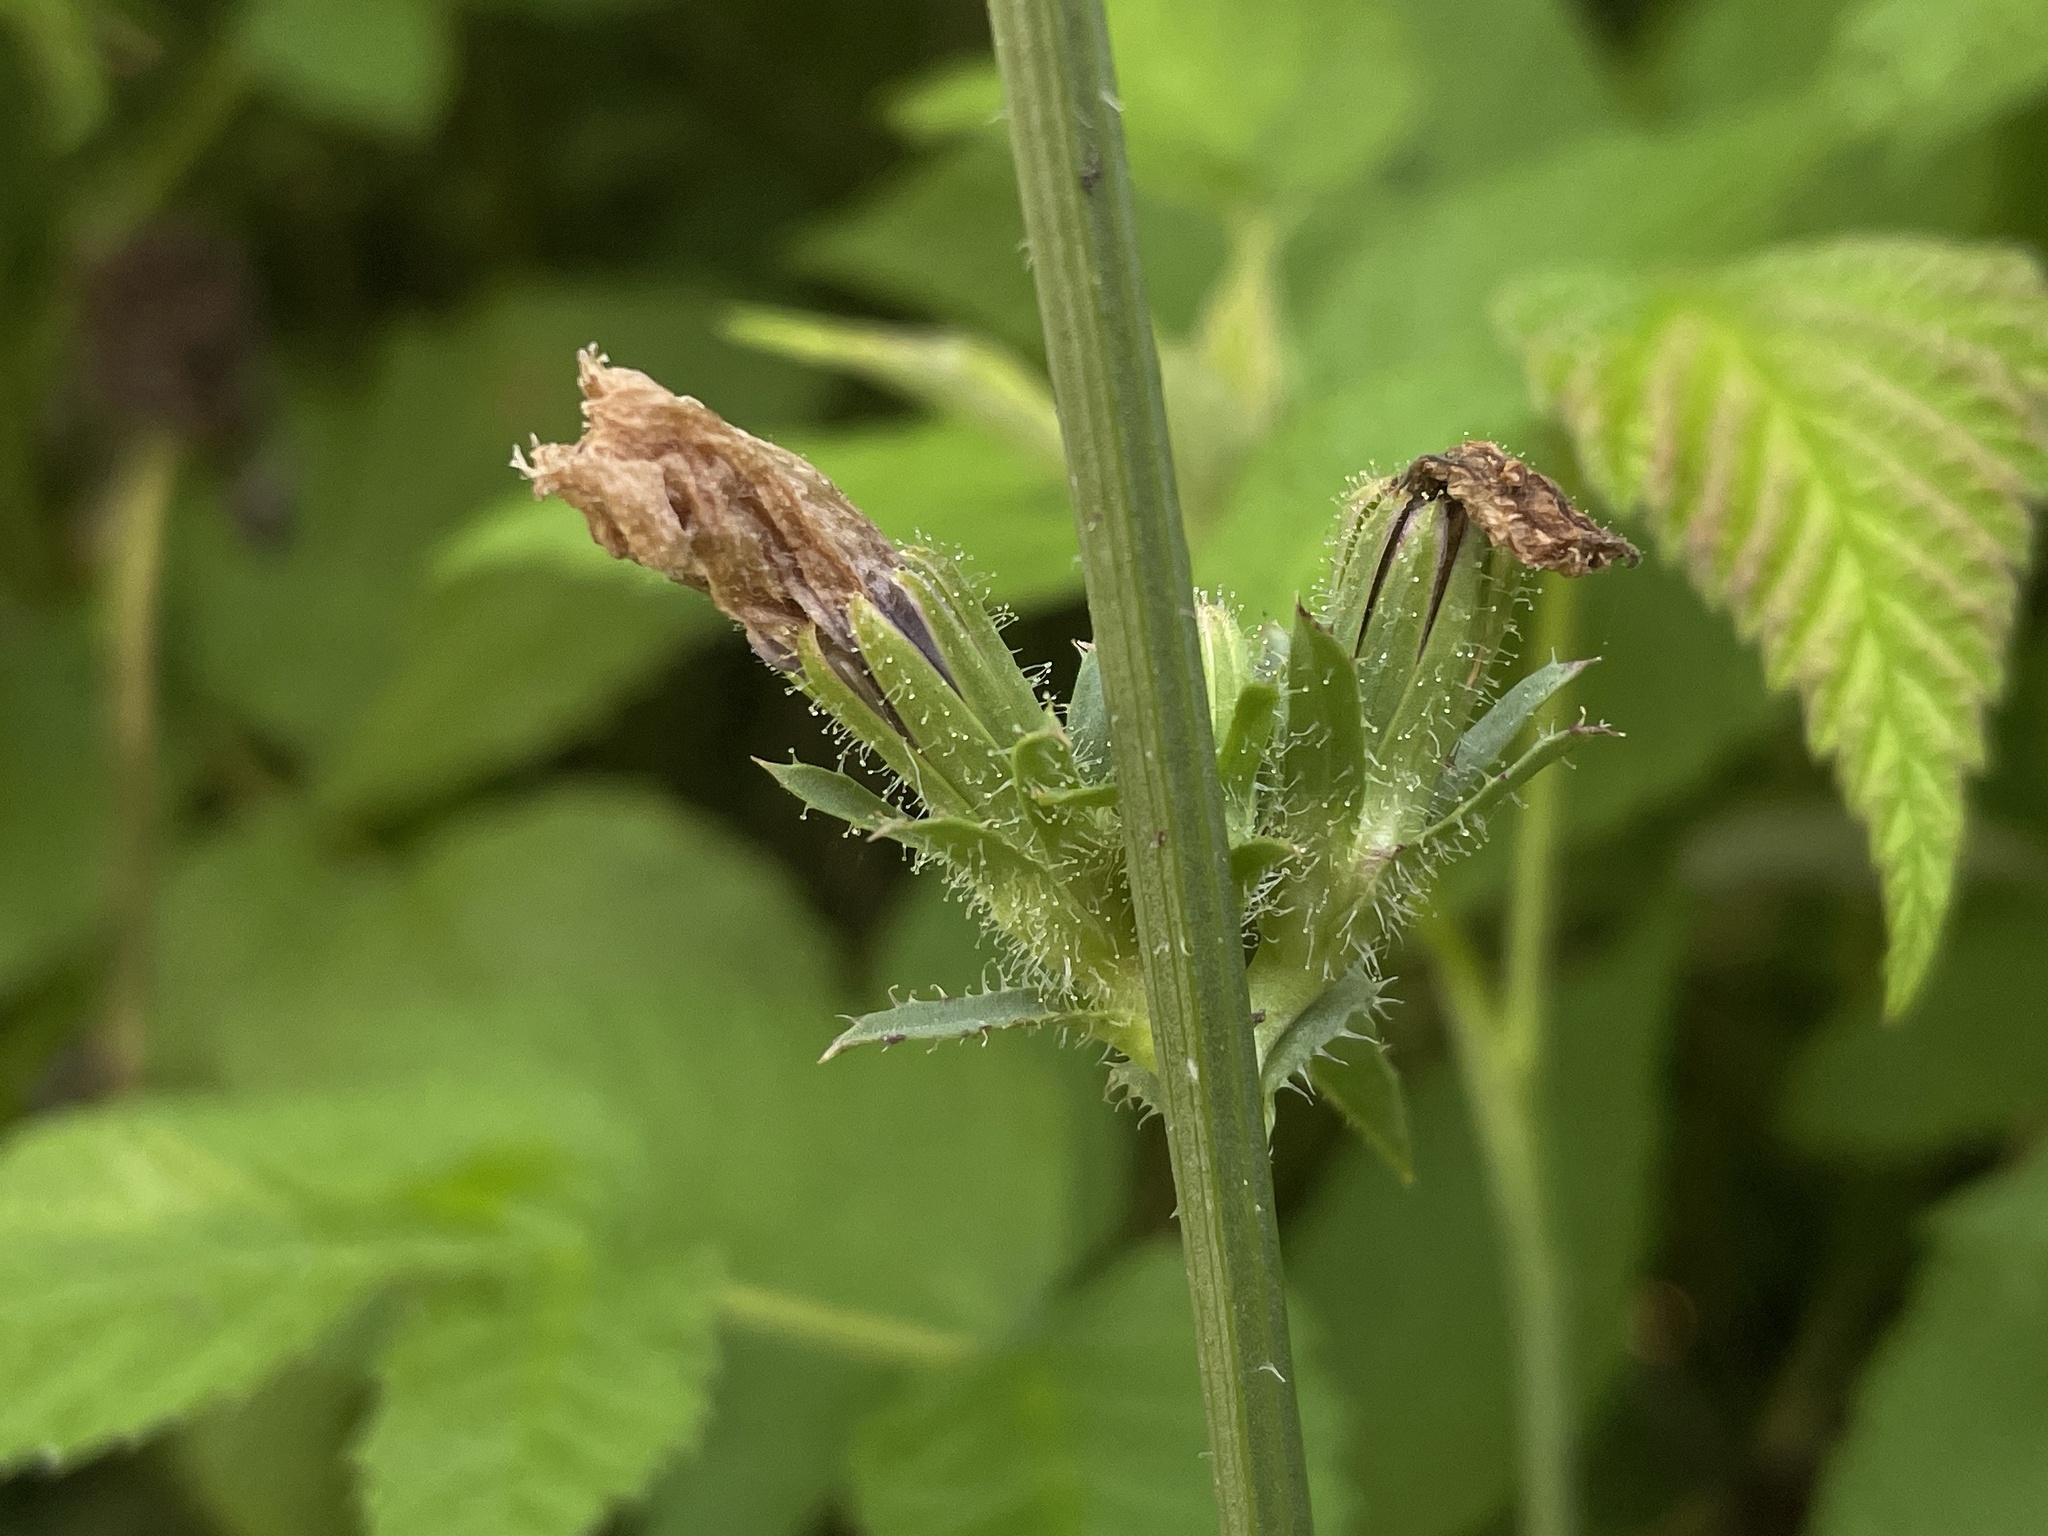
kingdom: Plantae
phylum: Tracheophyta
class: Magnoliopsida
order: Asterales
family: Asteraceae
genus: Cichorium
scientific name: Cichorium intybus
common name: Chicory
